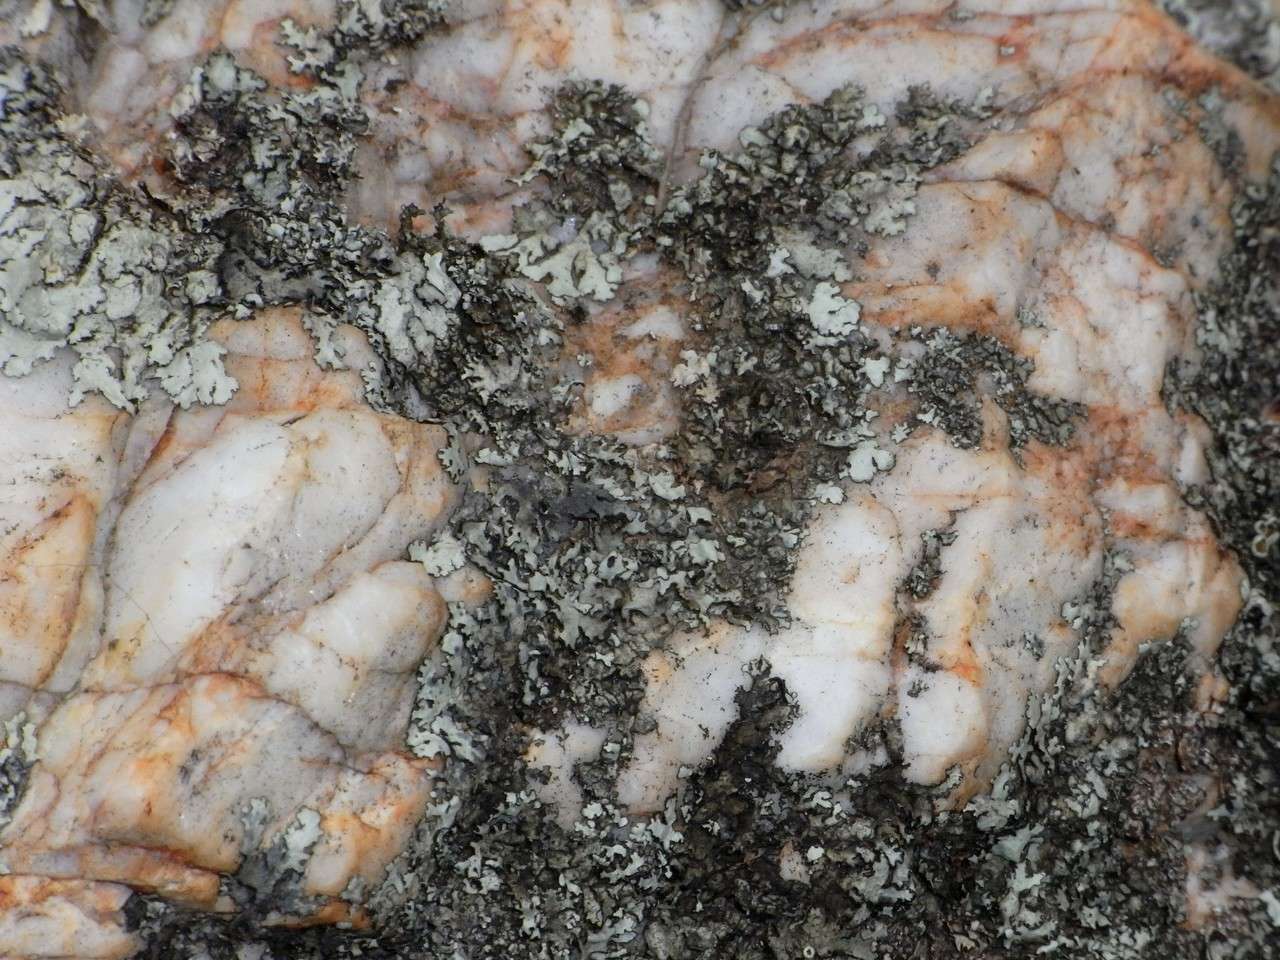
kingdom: Animalia
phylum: Arthropoda
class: Insecta
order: Orthoptera
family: Acrididae
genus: Cirphula
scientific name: Cirphula pyrrhocnemis
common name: Variable cirphula
